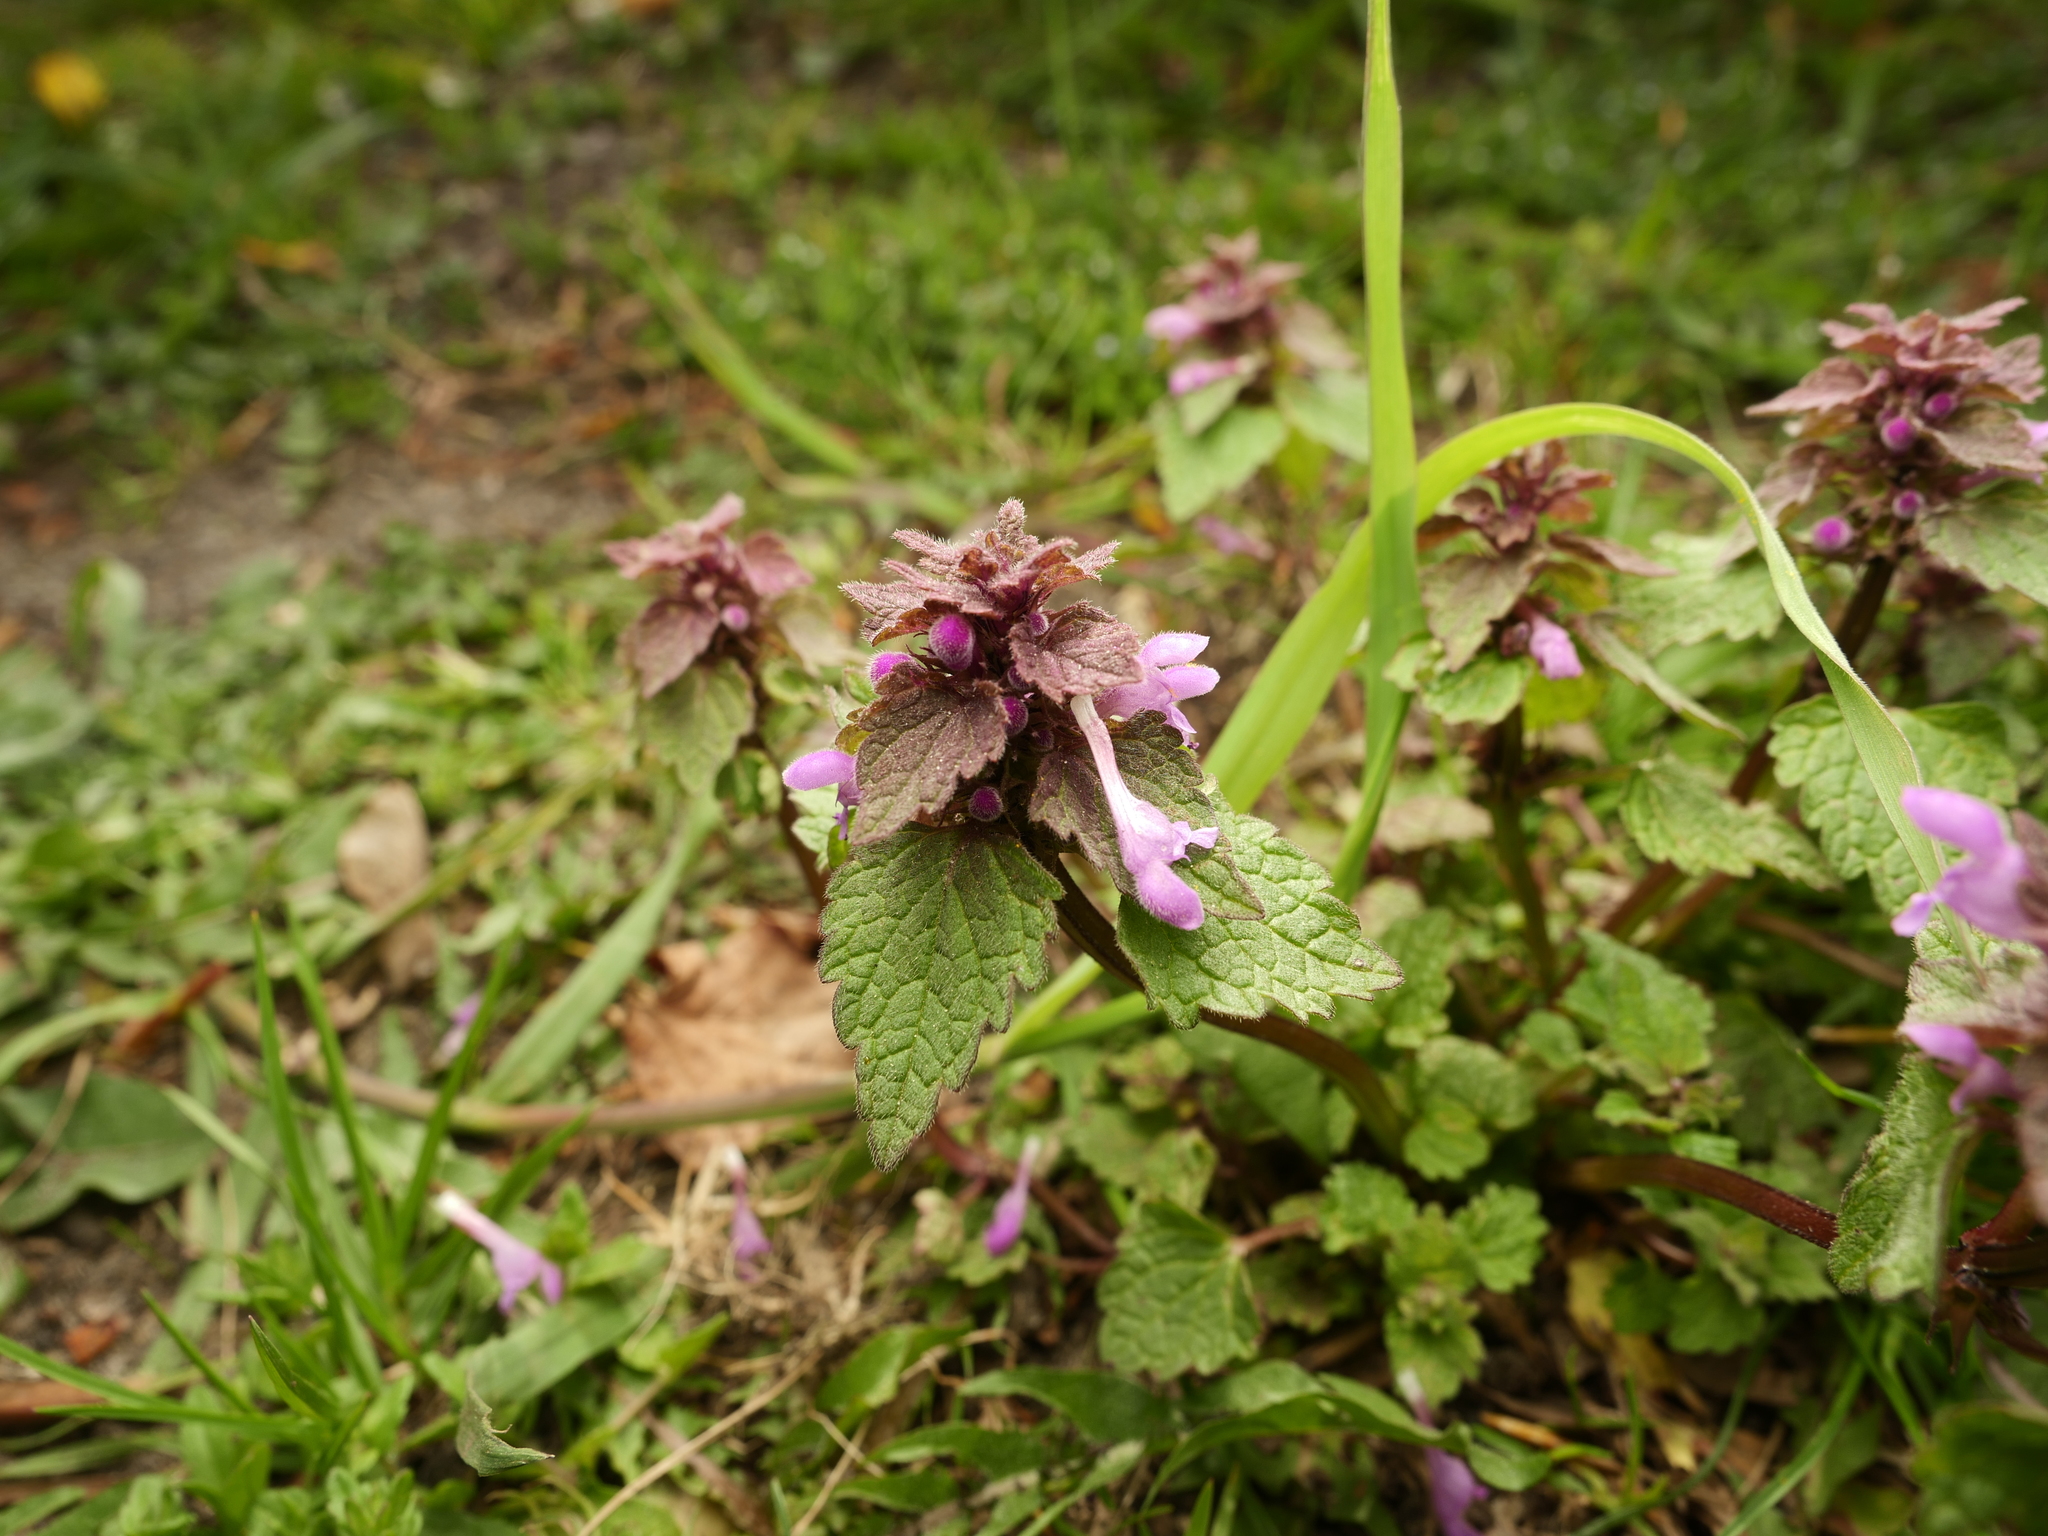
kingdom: Plantae
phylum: Tracheophyta
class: Magnoliopsida
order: Lamiales
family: Lamiaceae
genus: Lamium
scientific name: Lamium purpureum
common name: Red dead-nettle
